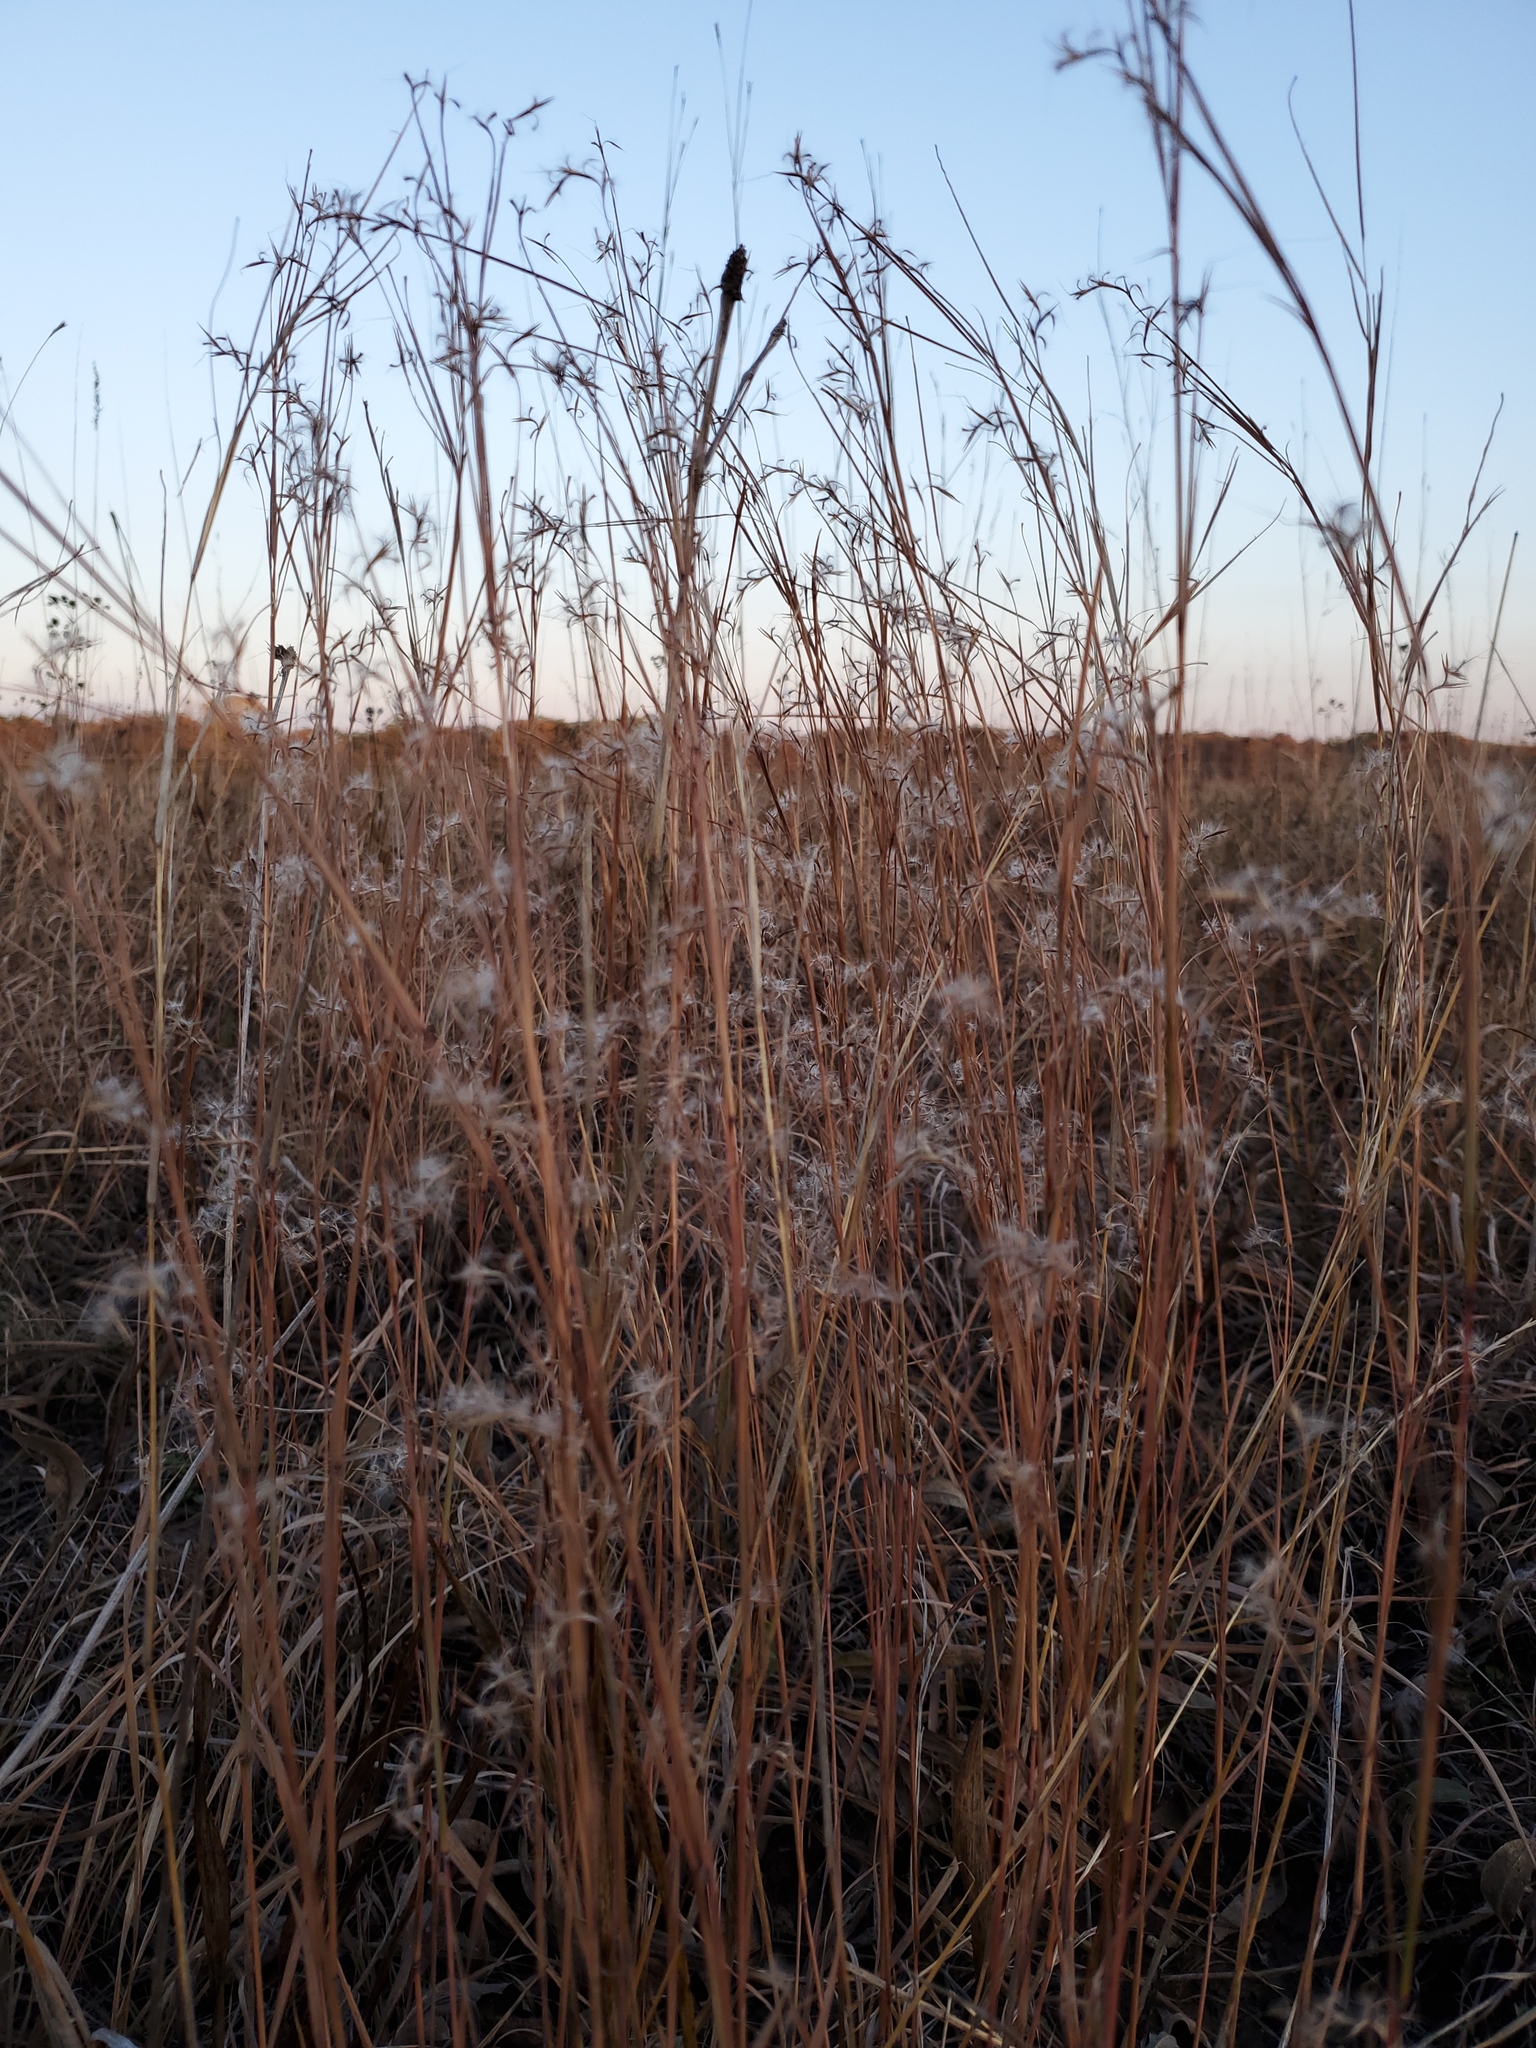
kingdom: Plantae
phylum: Tracheophyta
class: Liliopsida
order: Poales
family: Poaceae
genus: Schizachyrium
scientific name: Schizachyrium scoparium
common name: Little bluestem
